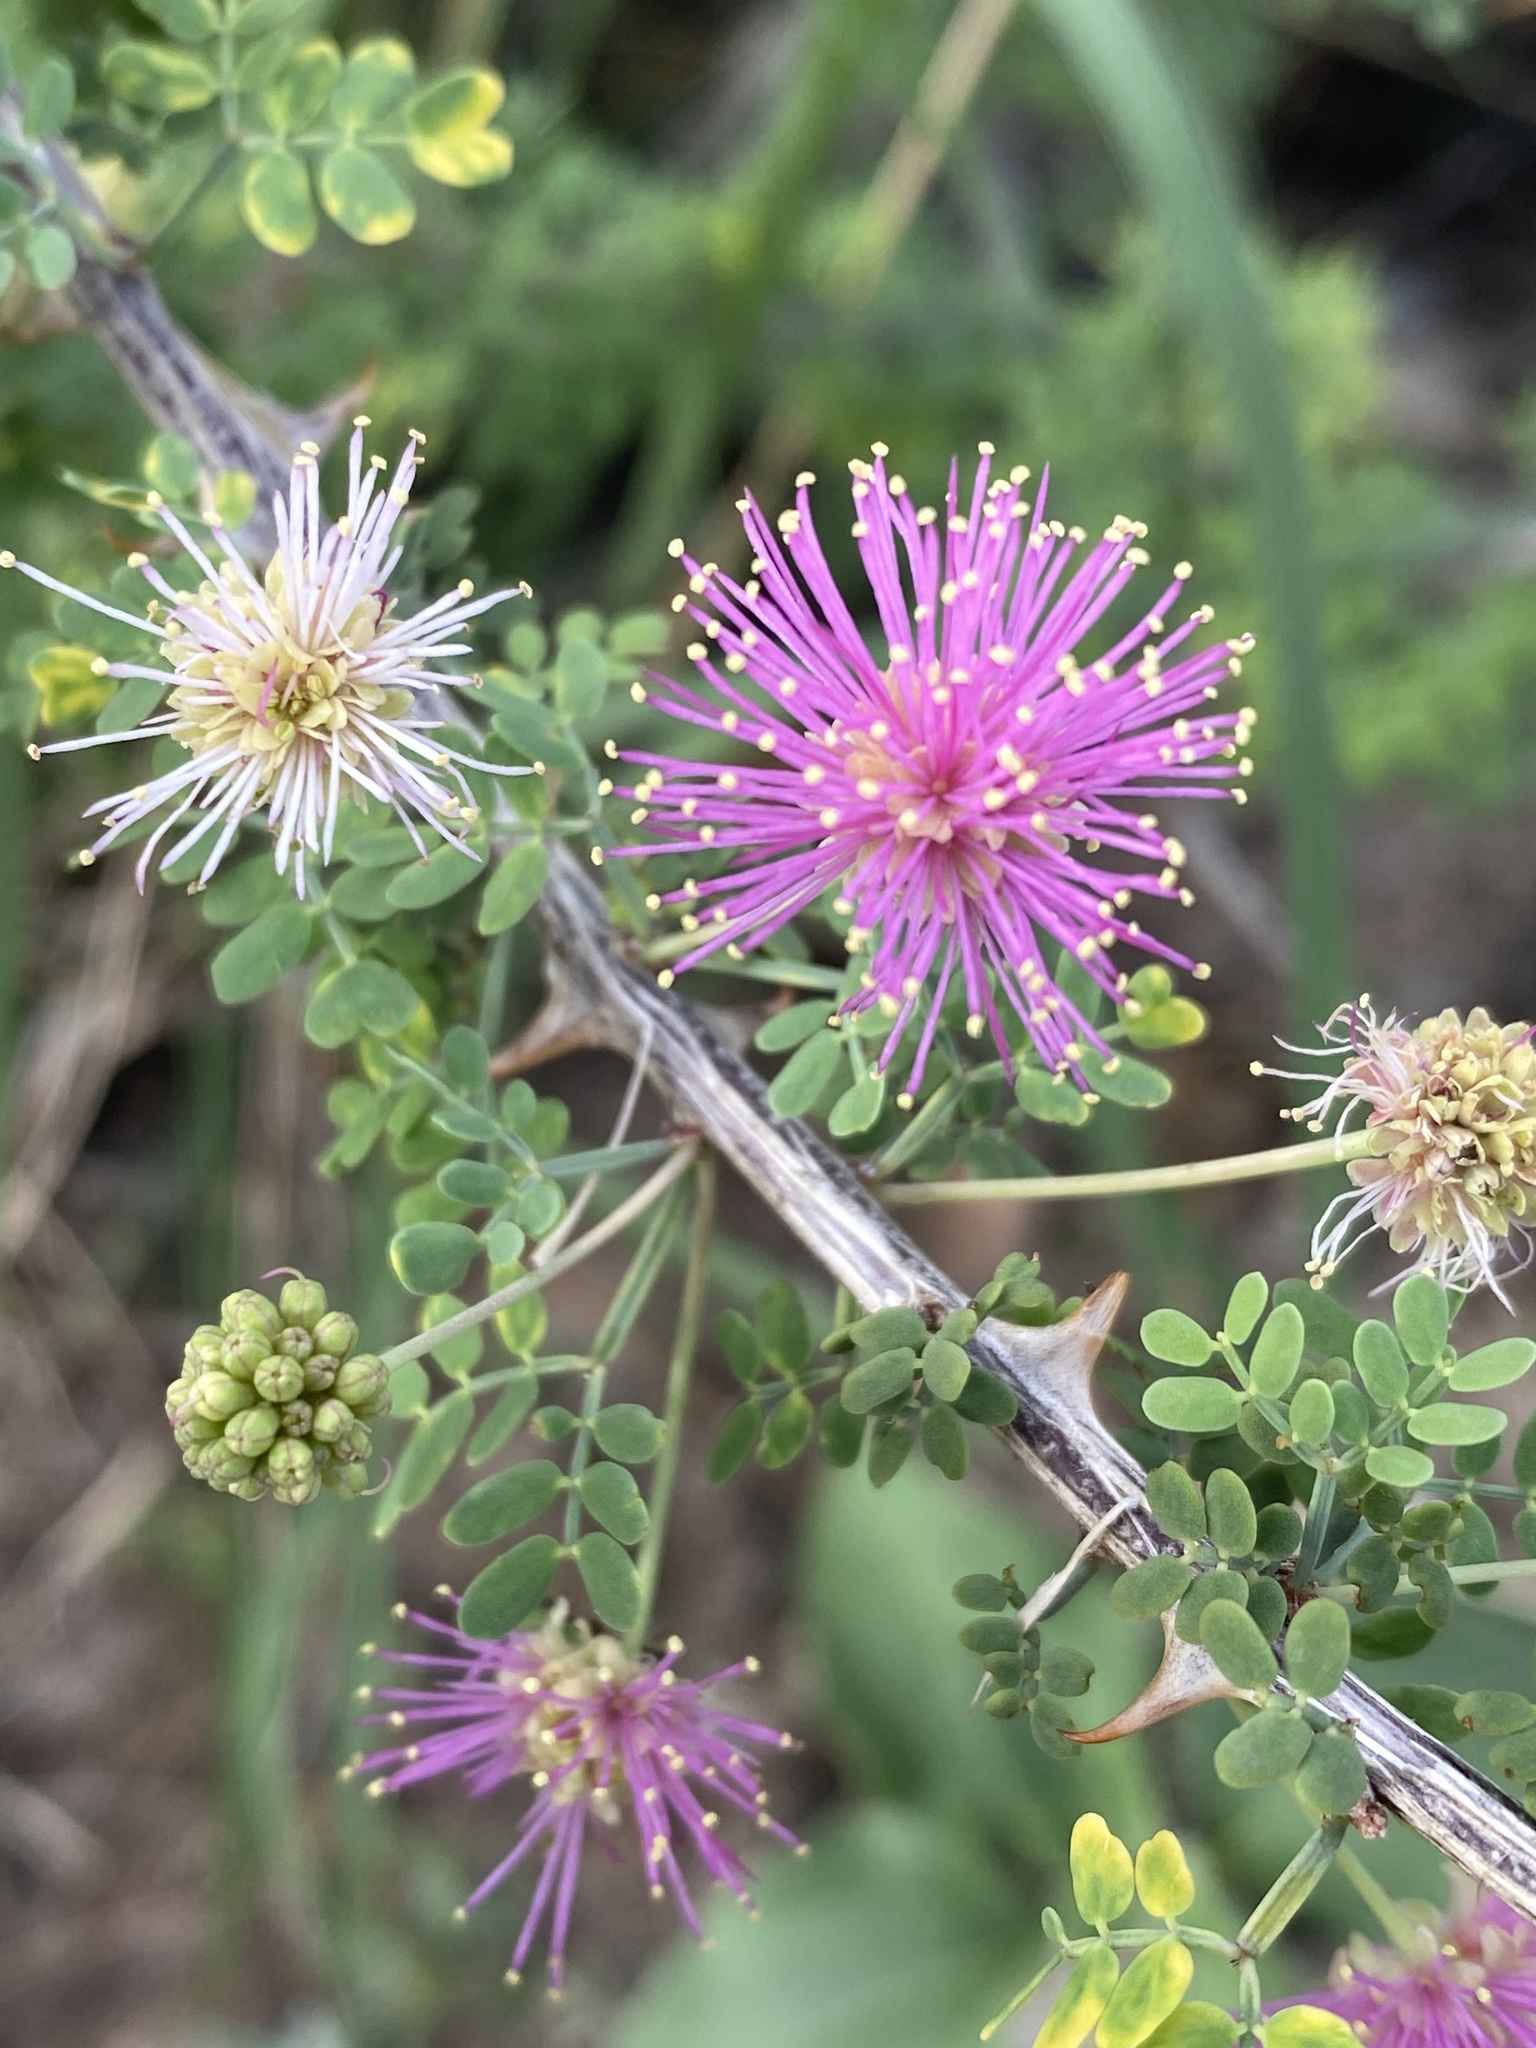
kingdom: Plantae
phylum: Tracheophyta
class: Magnoliopsida
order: Fabales
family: Fabaceae
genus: Mimosa
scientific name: Mimosa borealis
